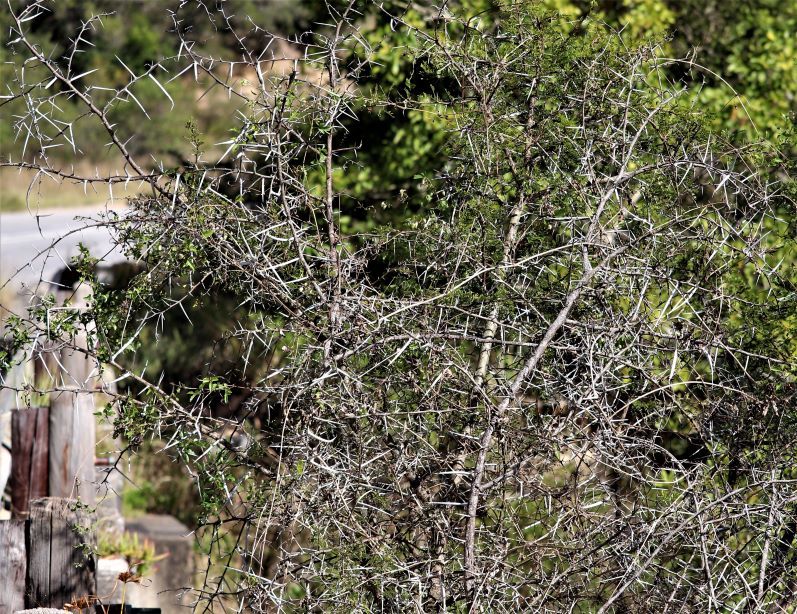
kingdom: Plantae
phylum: Tracheophyta
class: Magnoliopsida
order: Fabales
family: Fabaceae
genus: Vachellia
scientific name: Vachellia karroo
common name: Sweet thorn
